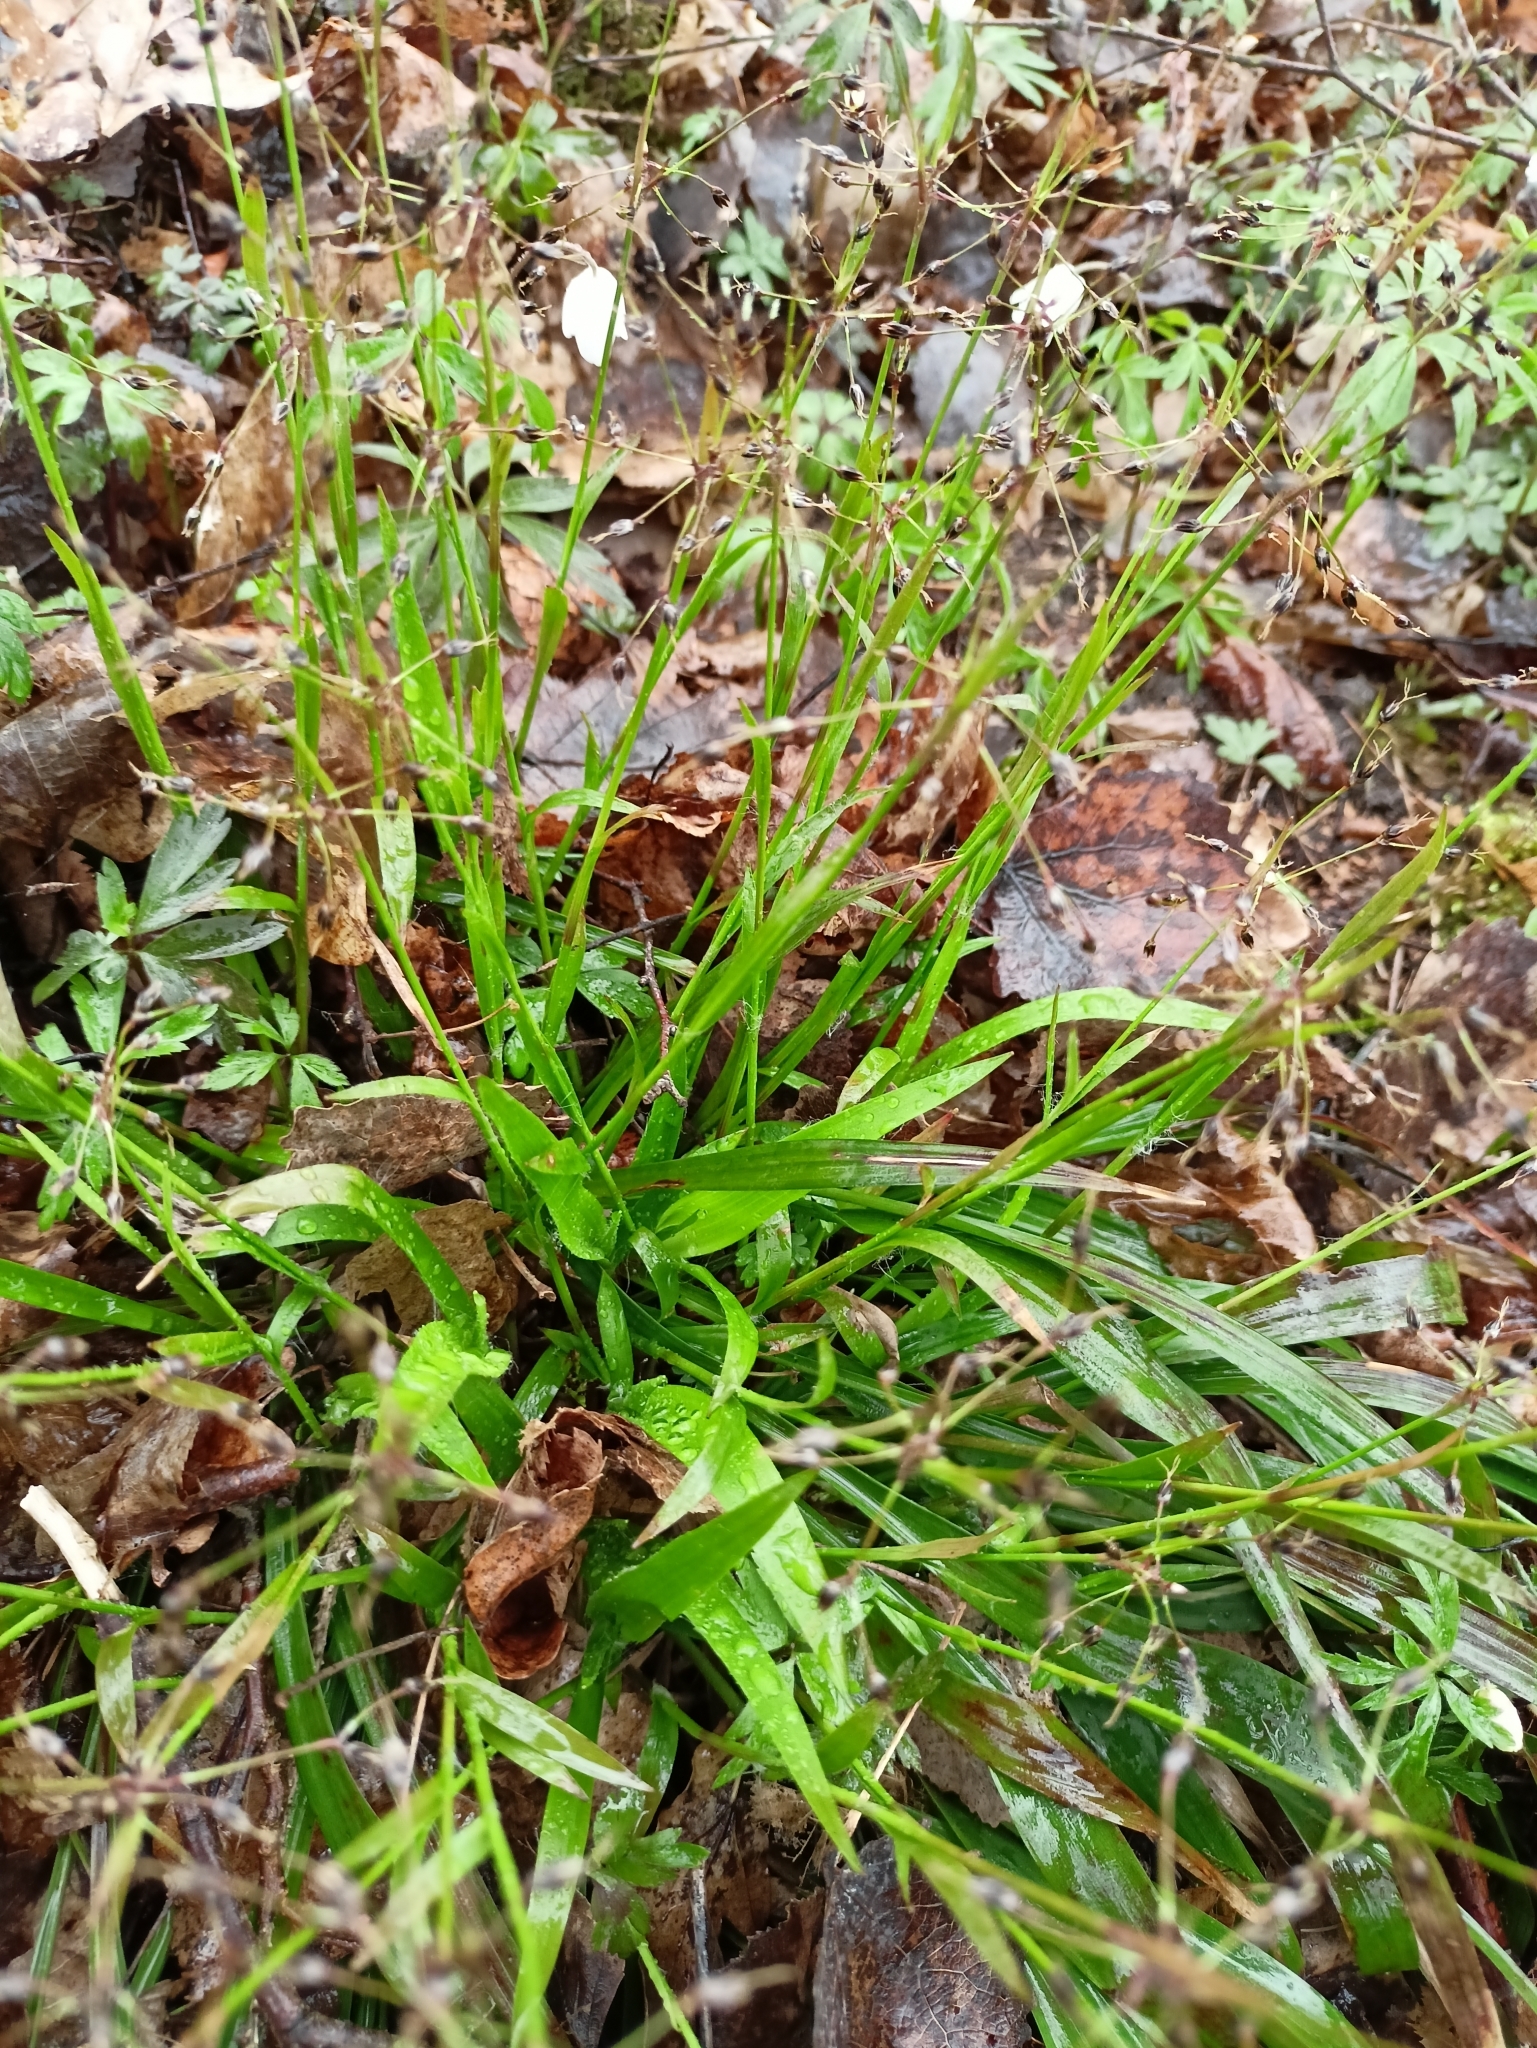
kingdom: Plantae
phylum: Tracheophyta
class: Liliopsida
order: Poales
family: Juncaceae
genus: Luzula
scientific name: Luzula pilosa
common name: Hairy wood-rush
